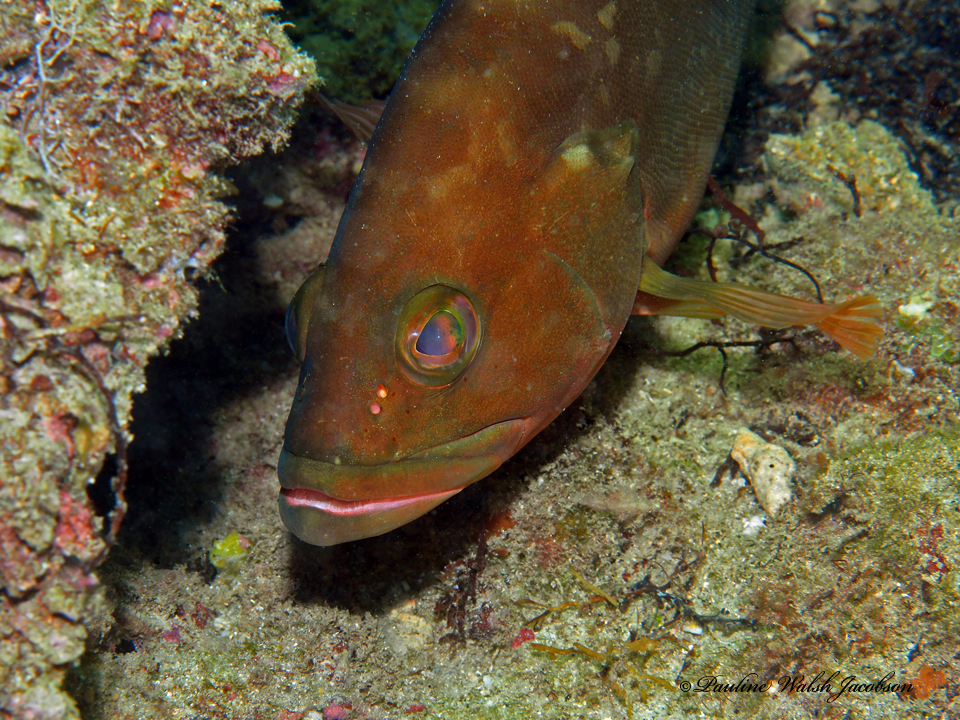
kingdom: Animalia
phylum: Chordata
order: Perciformes
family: Serranidae
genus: Epinephelus
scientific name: Epinephelus morio
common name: Red grouper
